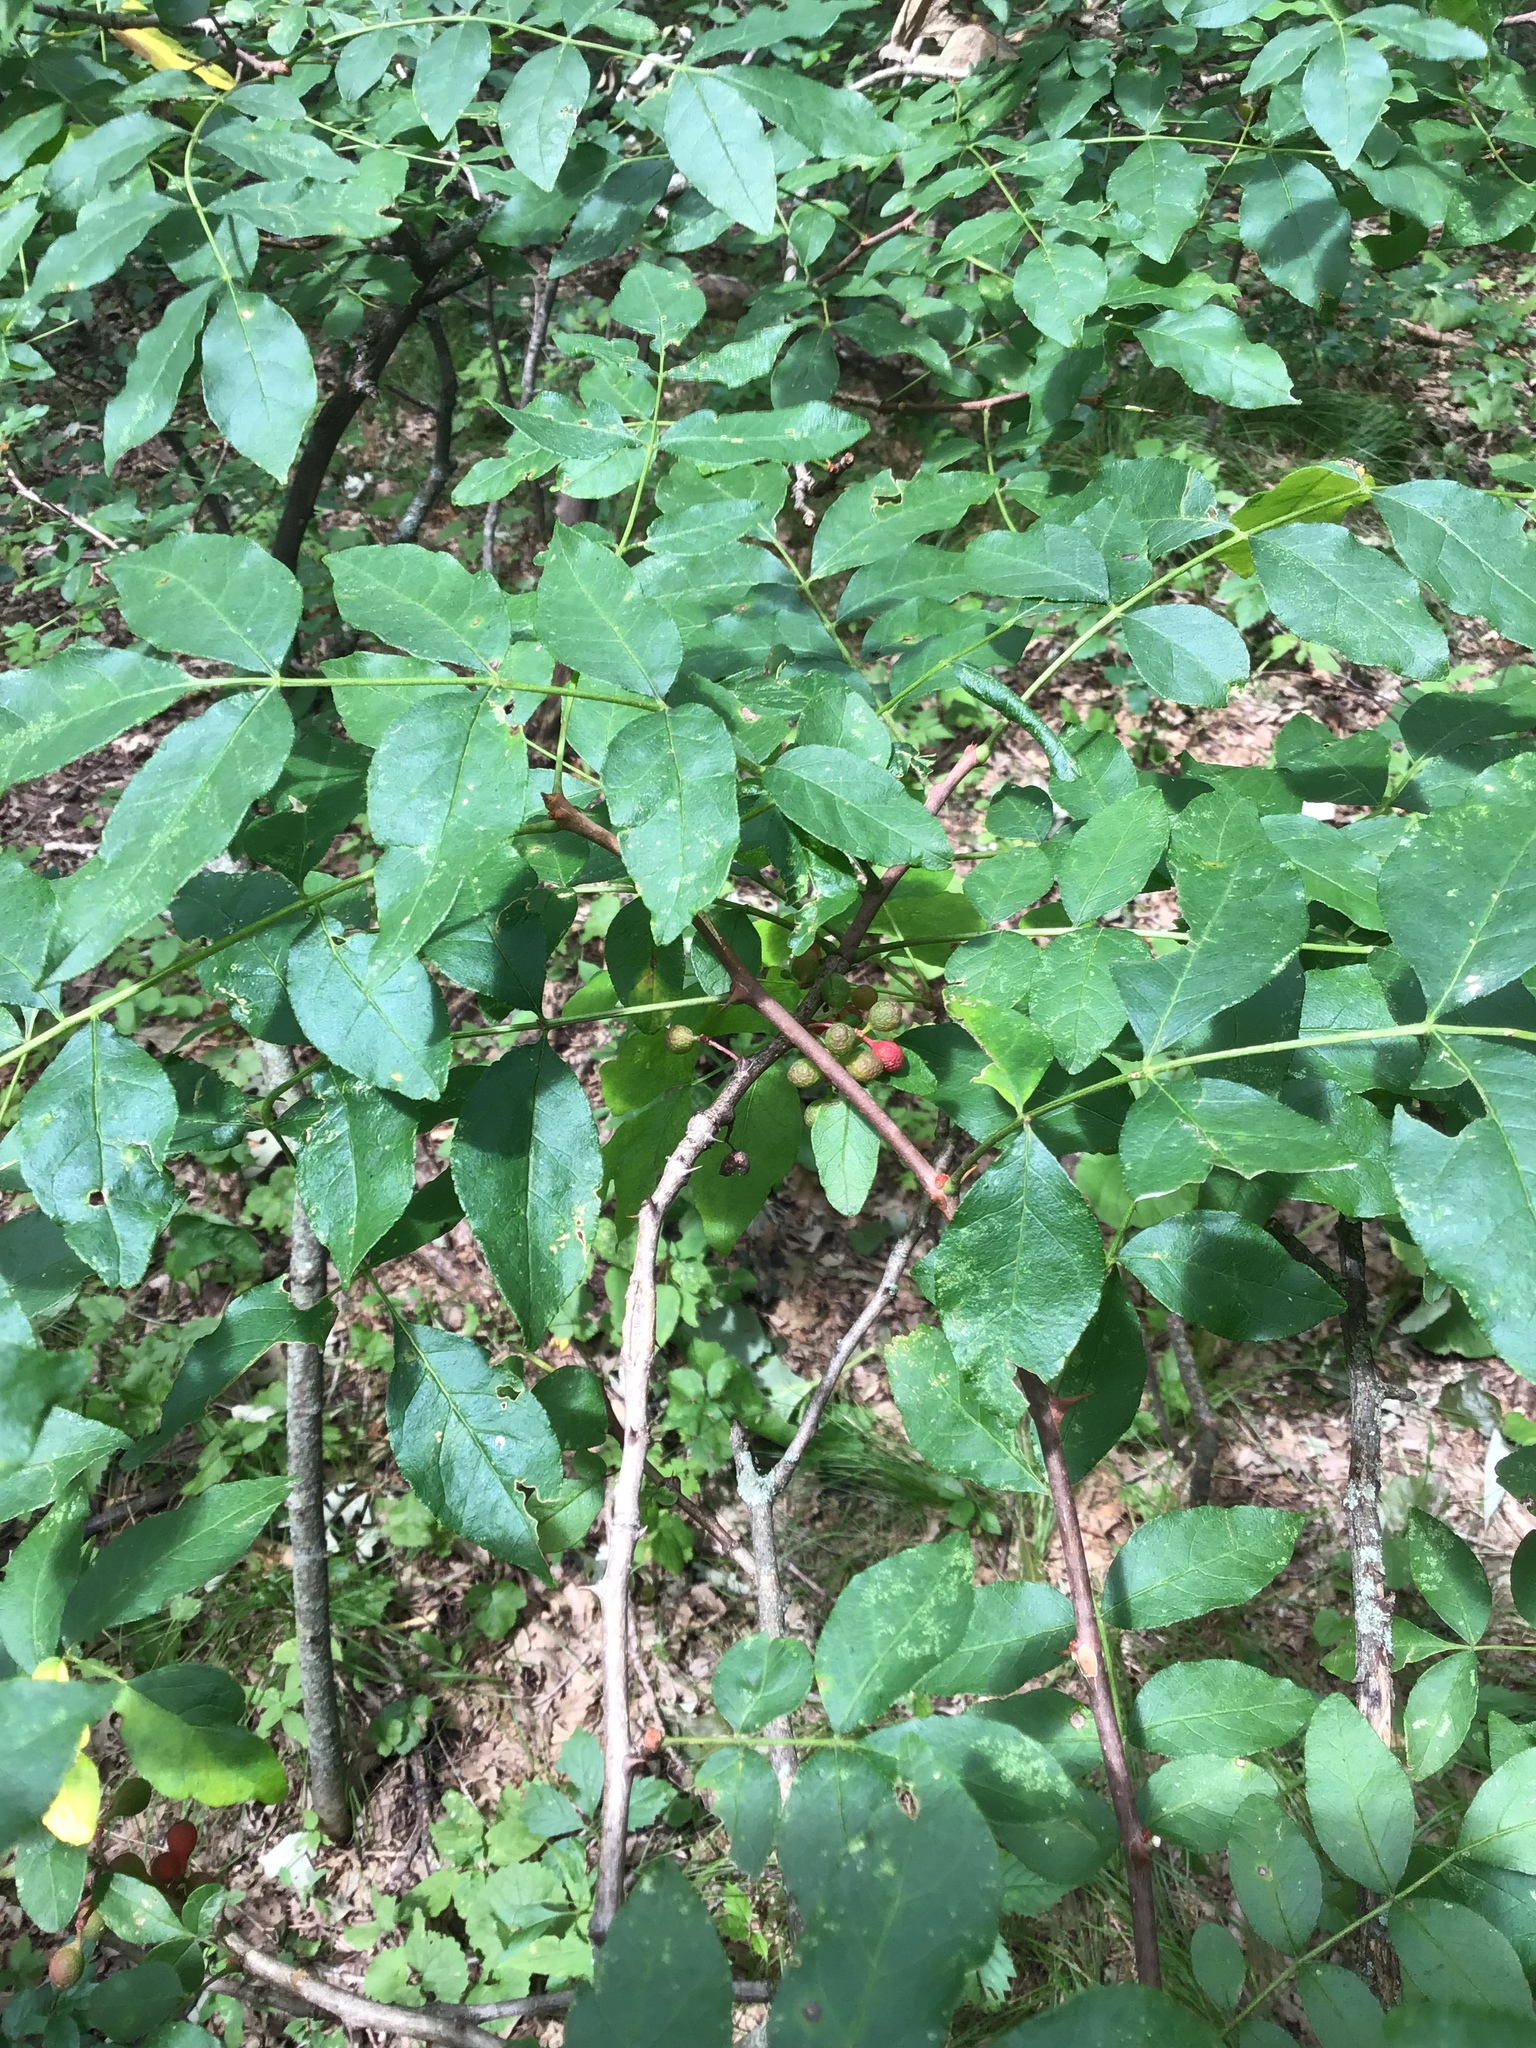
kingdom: Plantae
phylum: Tracheophyta
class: Magnoliopsida
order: Sapindales
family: Rutaceae
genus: Zanthoxylum
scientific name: Zanthoxylum americanum
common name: Northern prickly-ash
